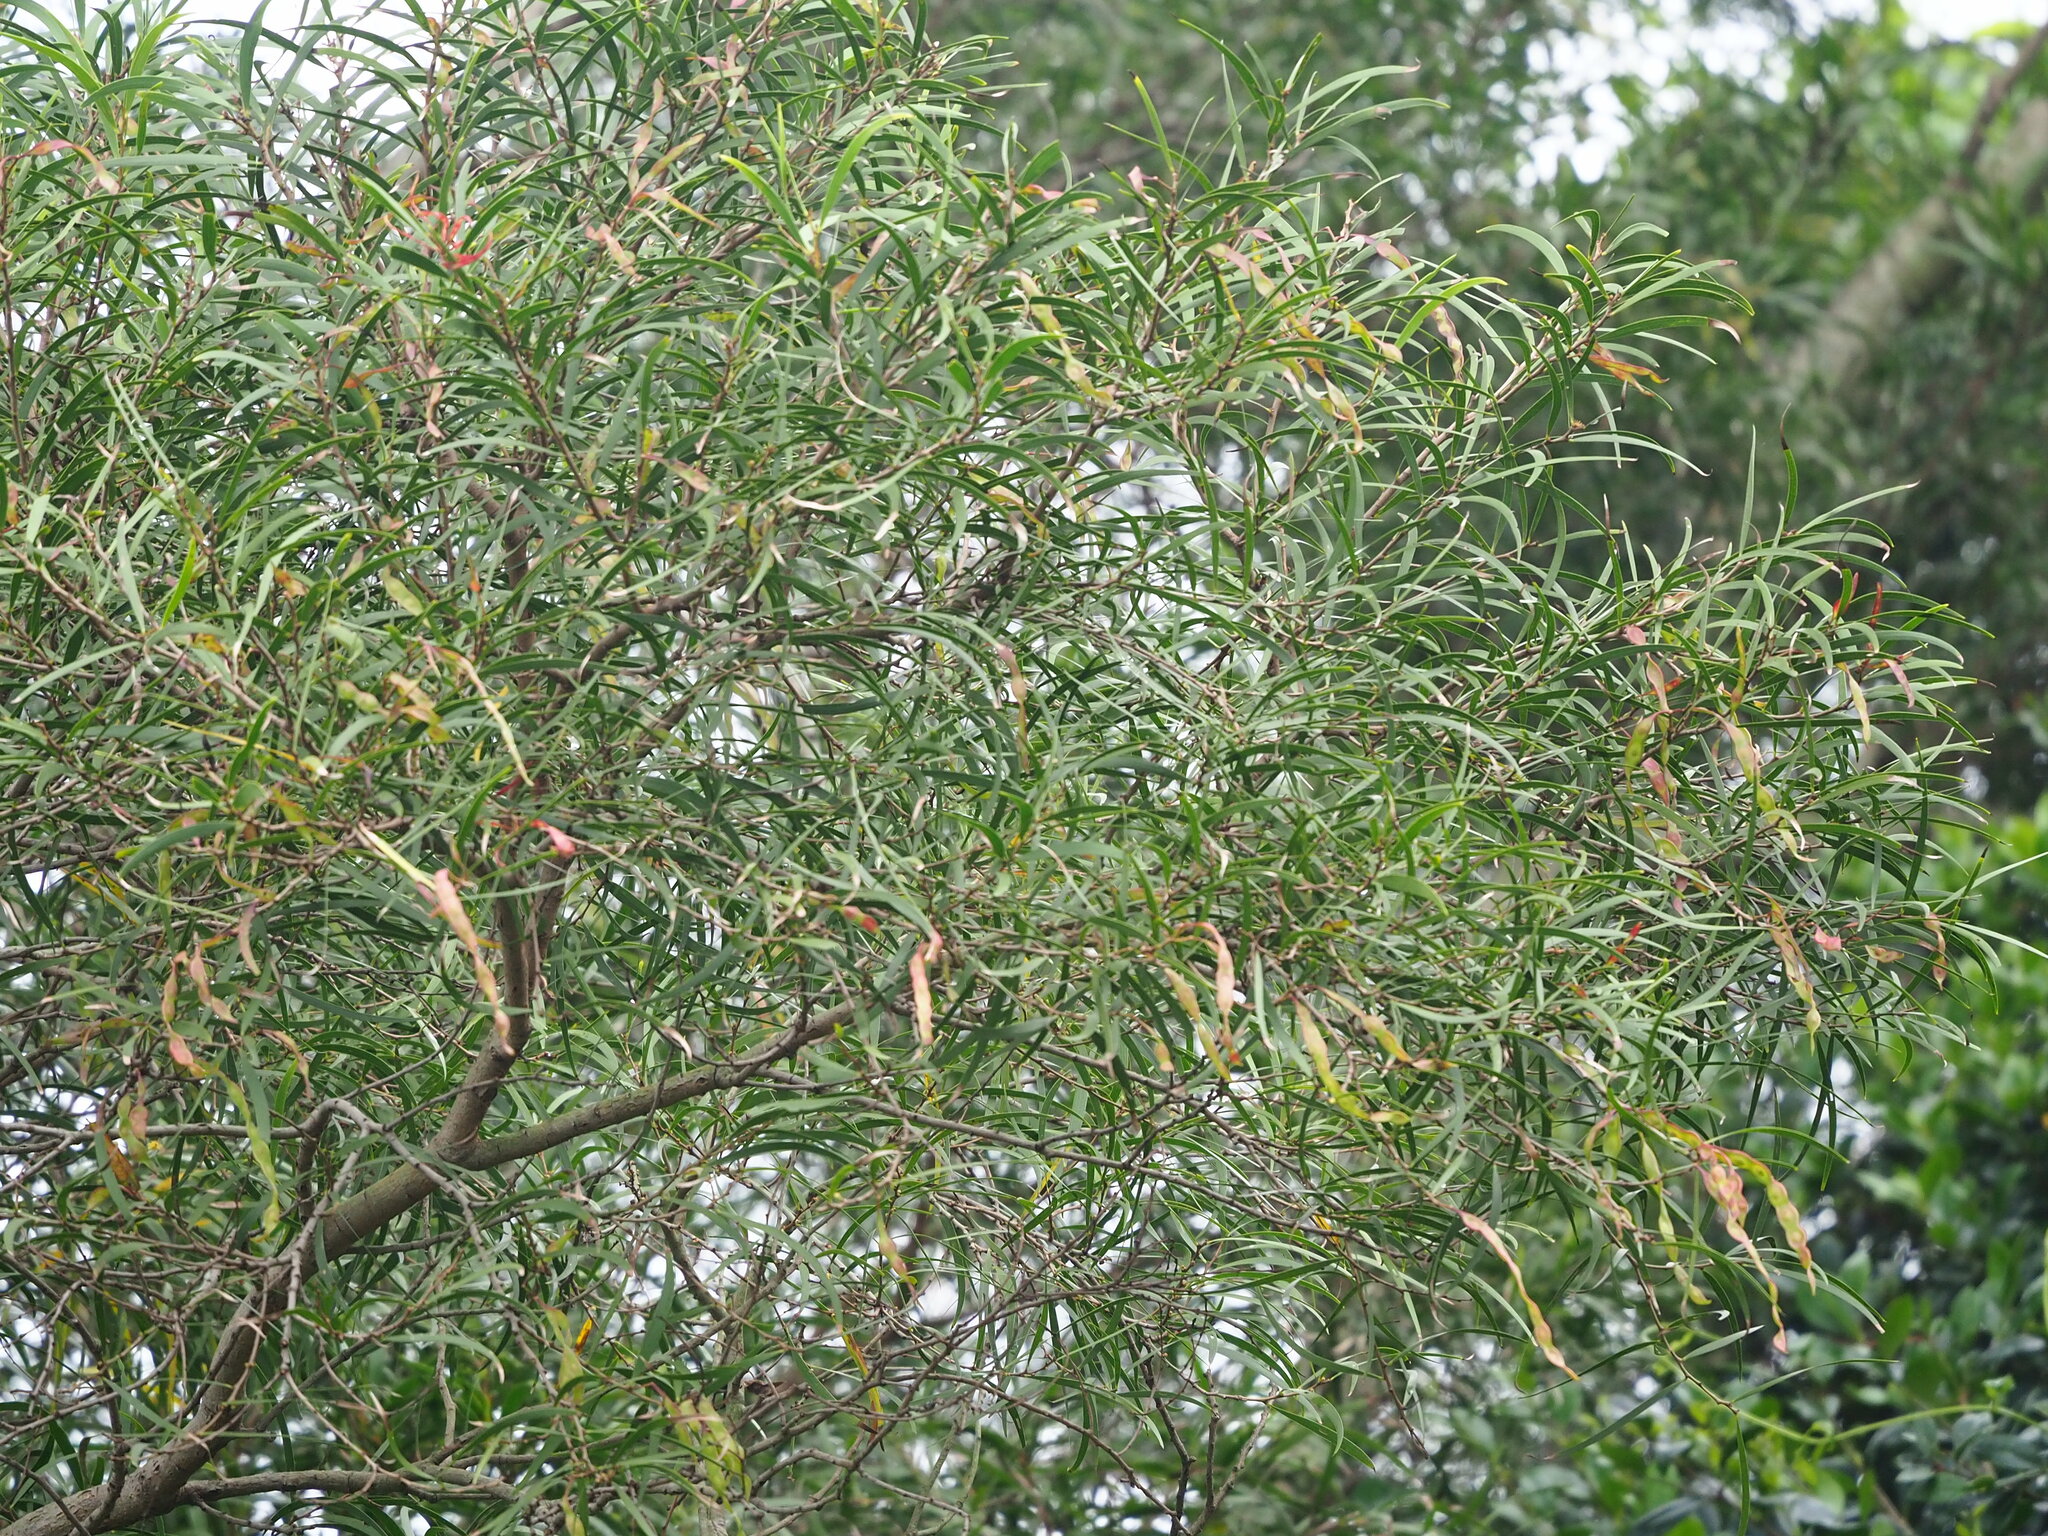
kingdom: Plantae
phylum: Tracheophyta
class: Magnoliopsida
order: Fabales
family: Fabaceae
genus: Acacia
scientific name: Acacia confusa
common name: Formosan koa
